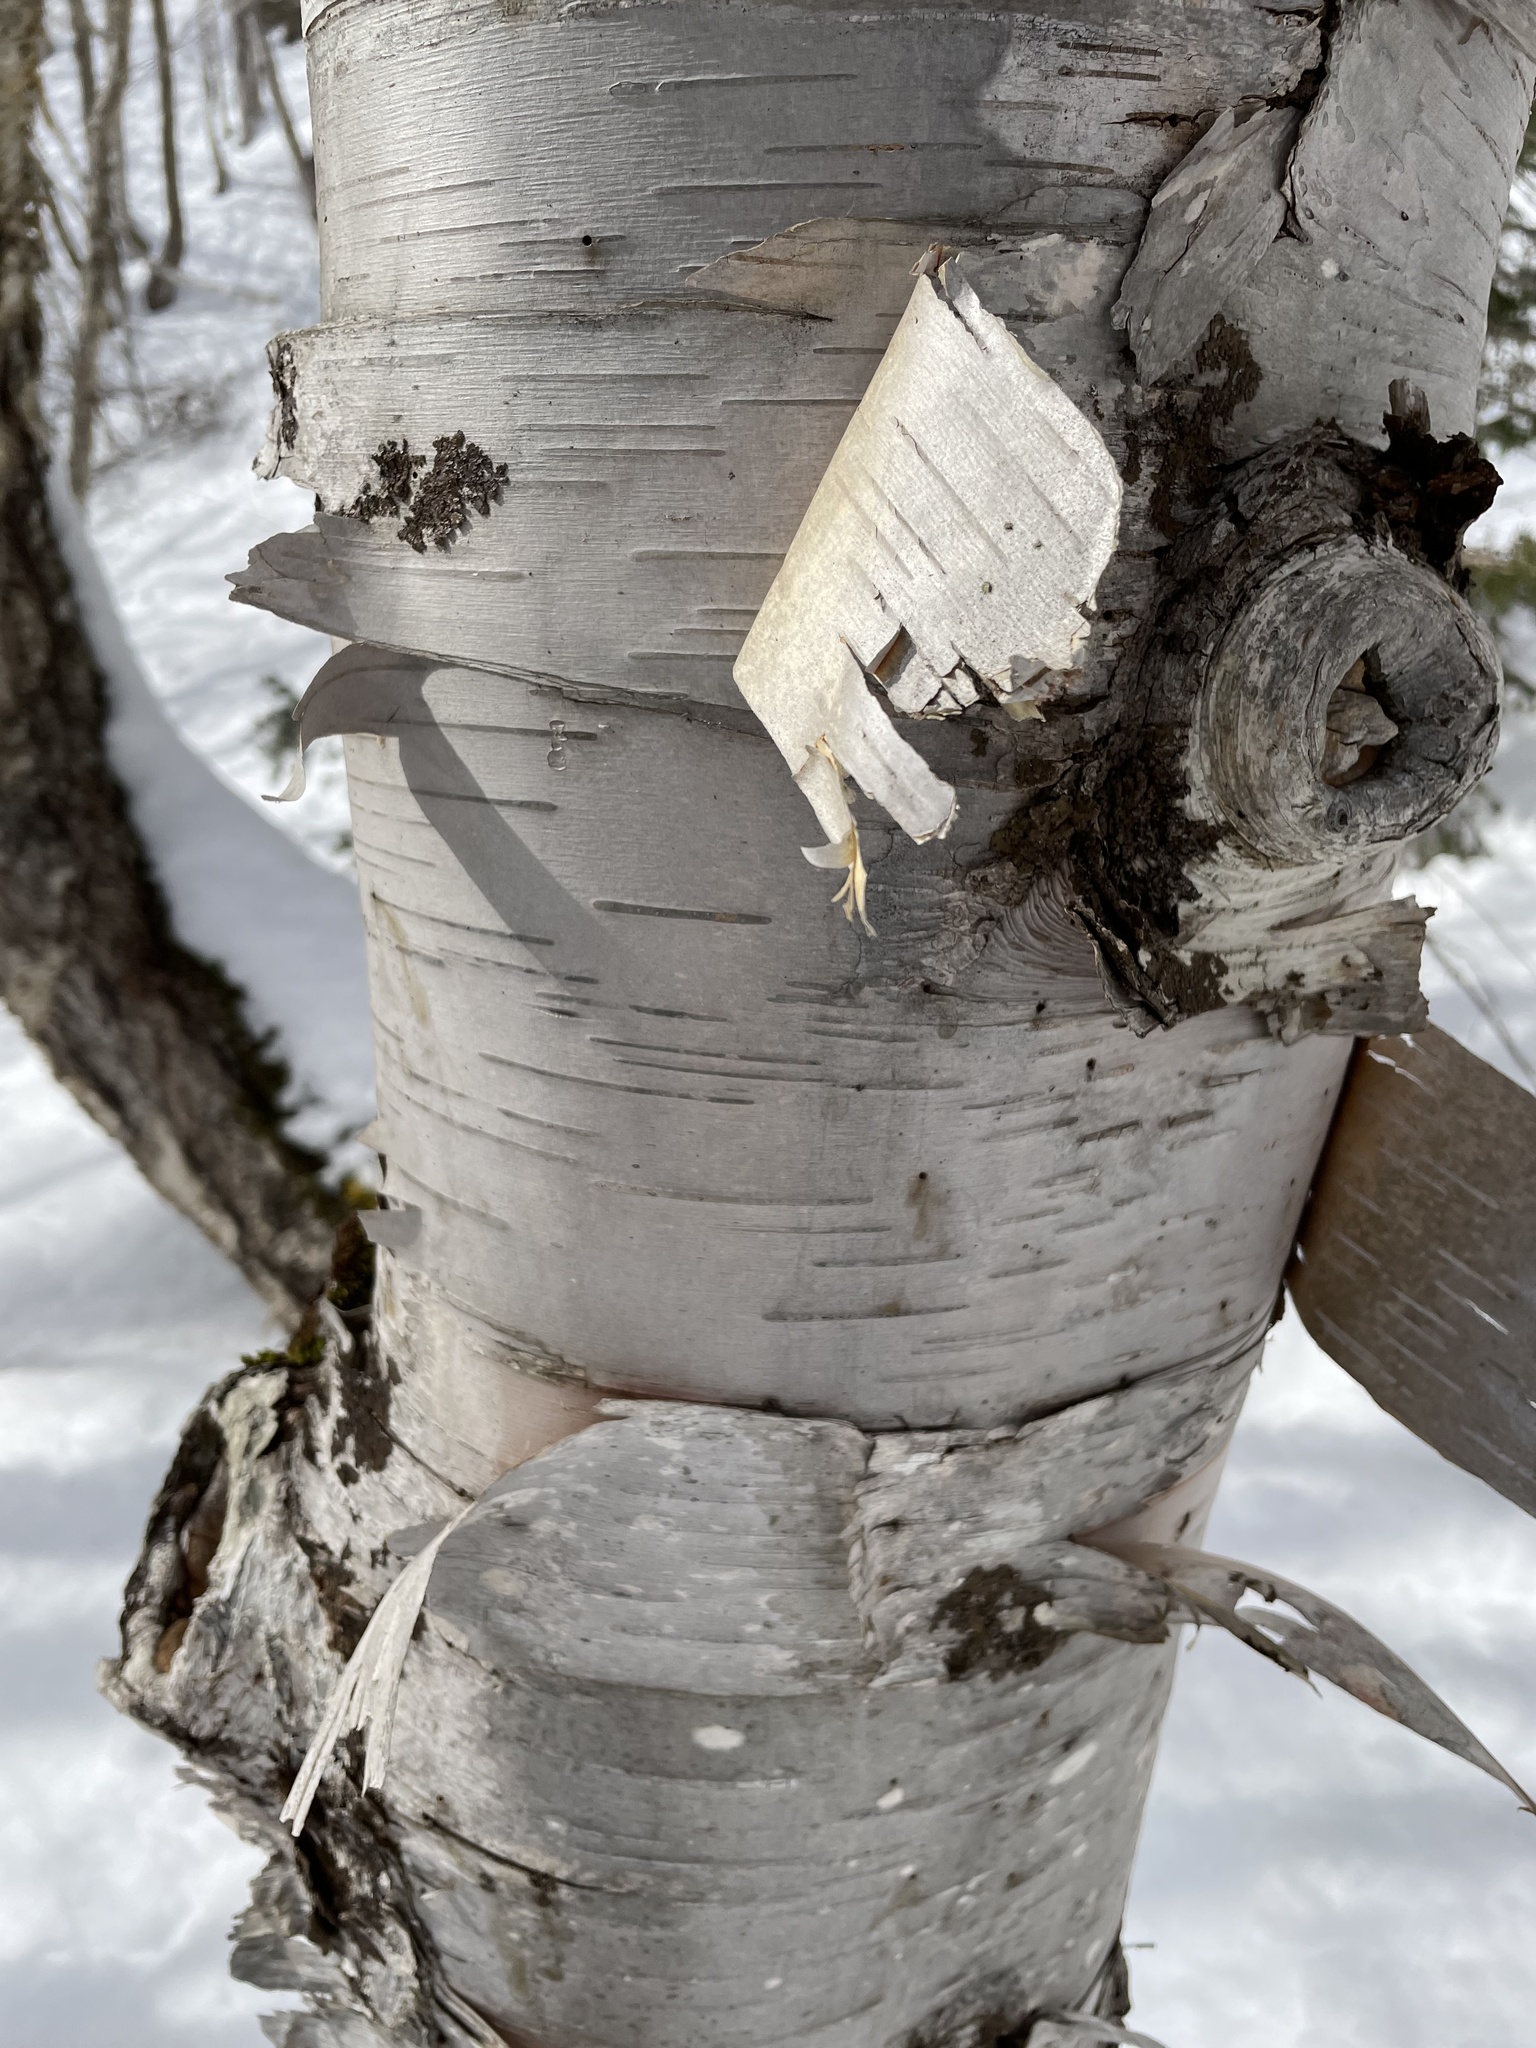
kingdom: Plantae
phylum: Tracheophyta
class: Magnoliopsida
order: Fagales
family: Betulaceae
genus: Betula
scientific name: Betula papyrifera
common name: Paper birch
